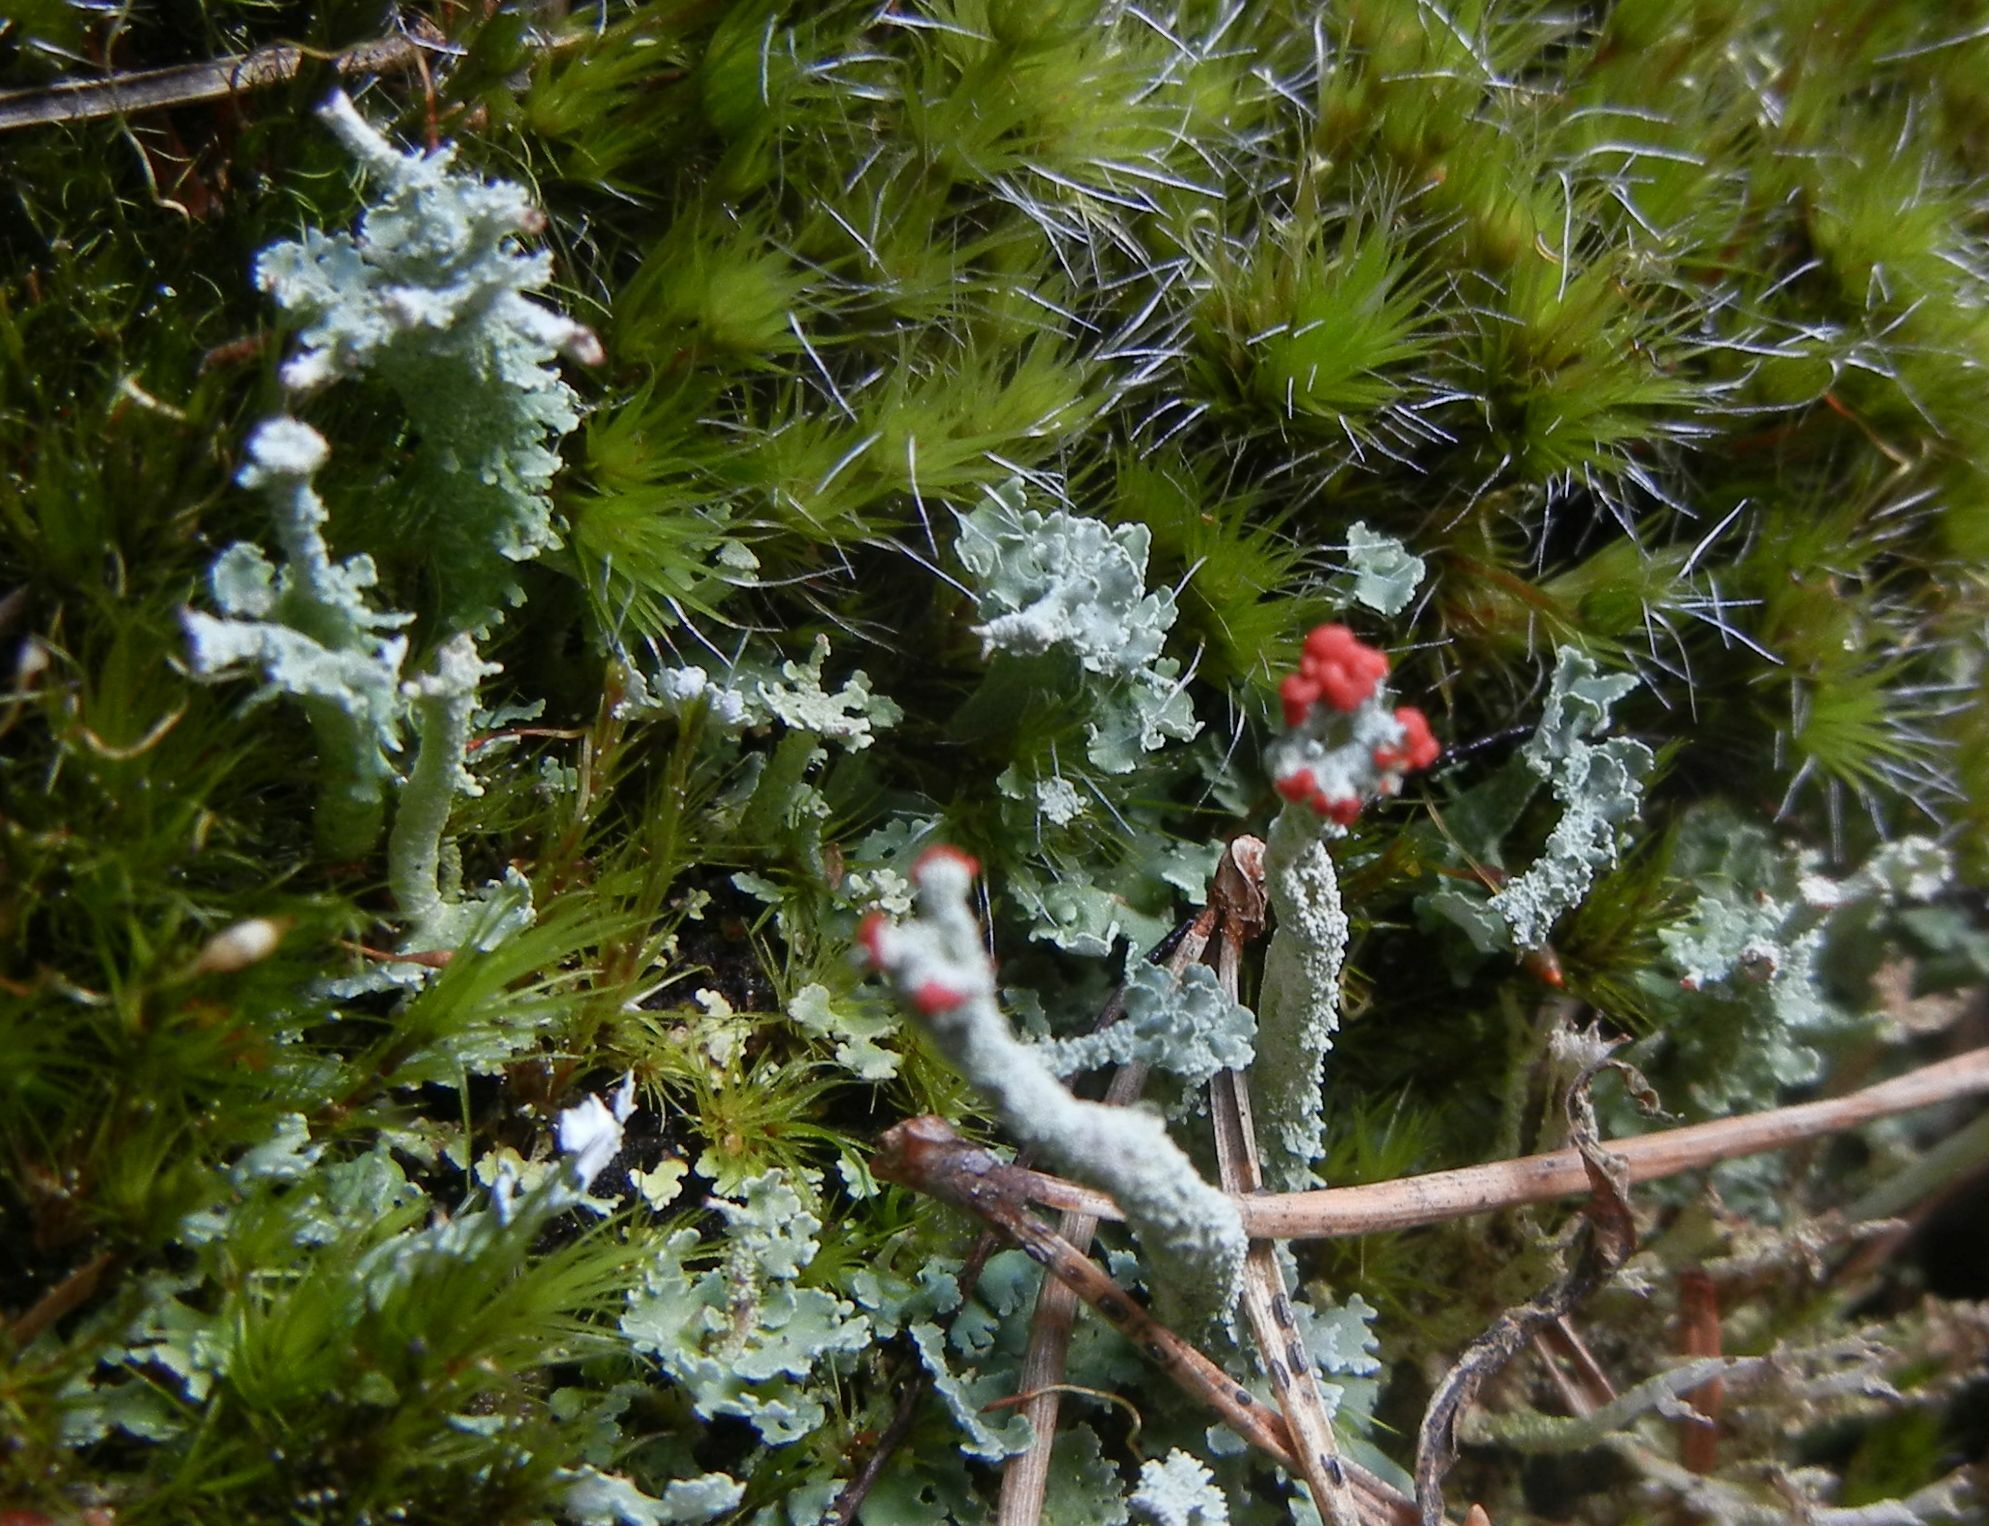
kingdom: Fungi
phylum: Ascomycota
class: Lecanoromycetes
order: Lecanorales
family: Cladoniaceae
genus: Cladonia
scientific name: Cladonia polydactyla
